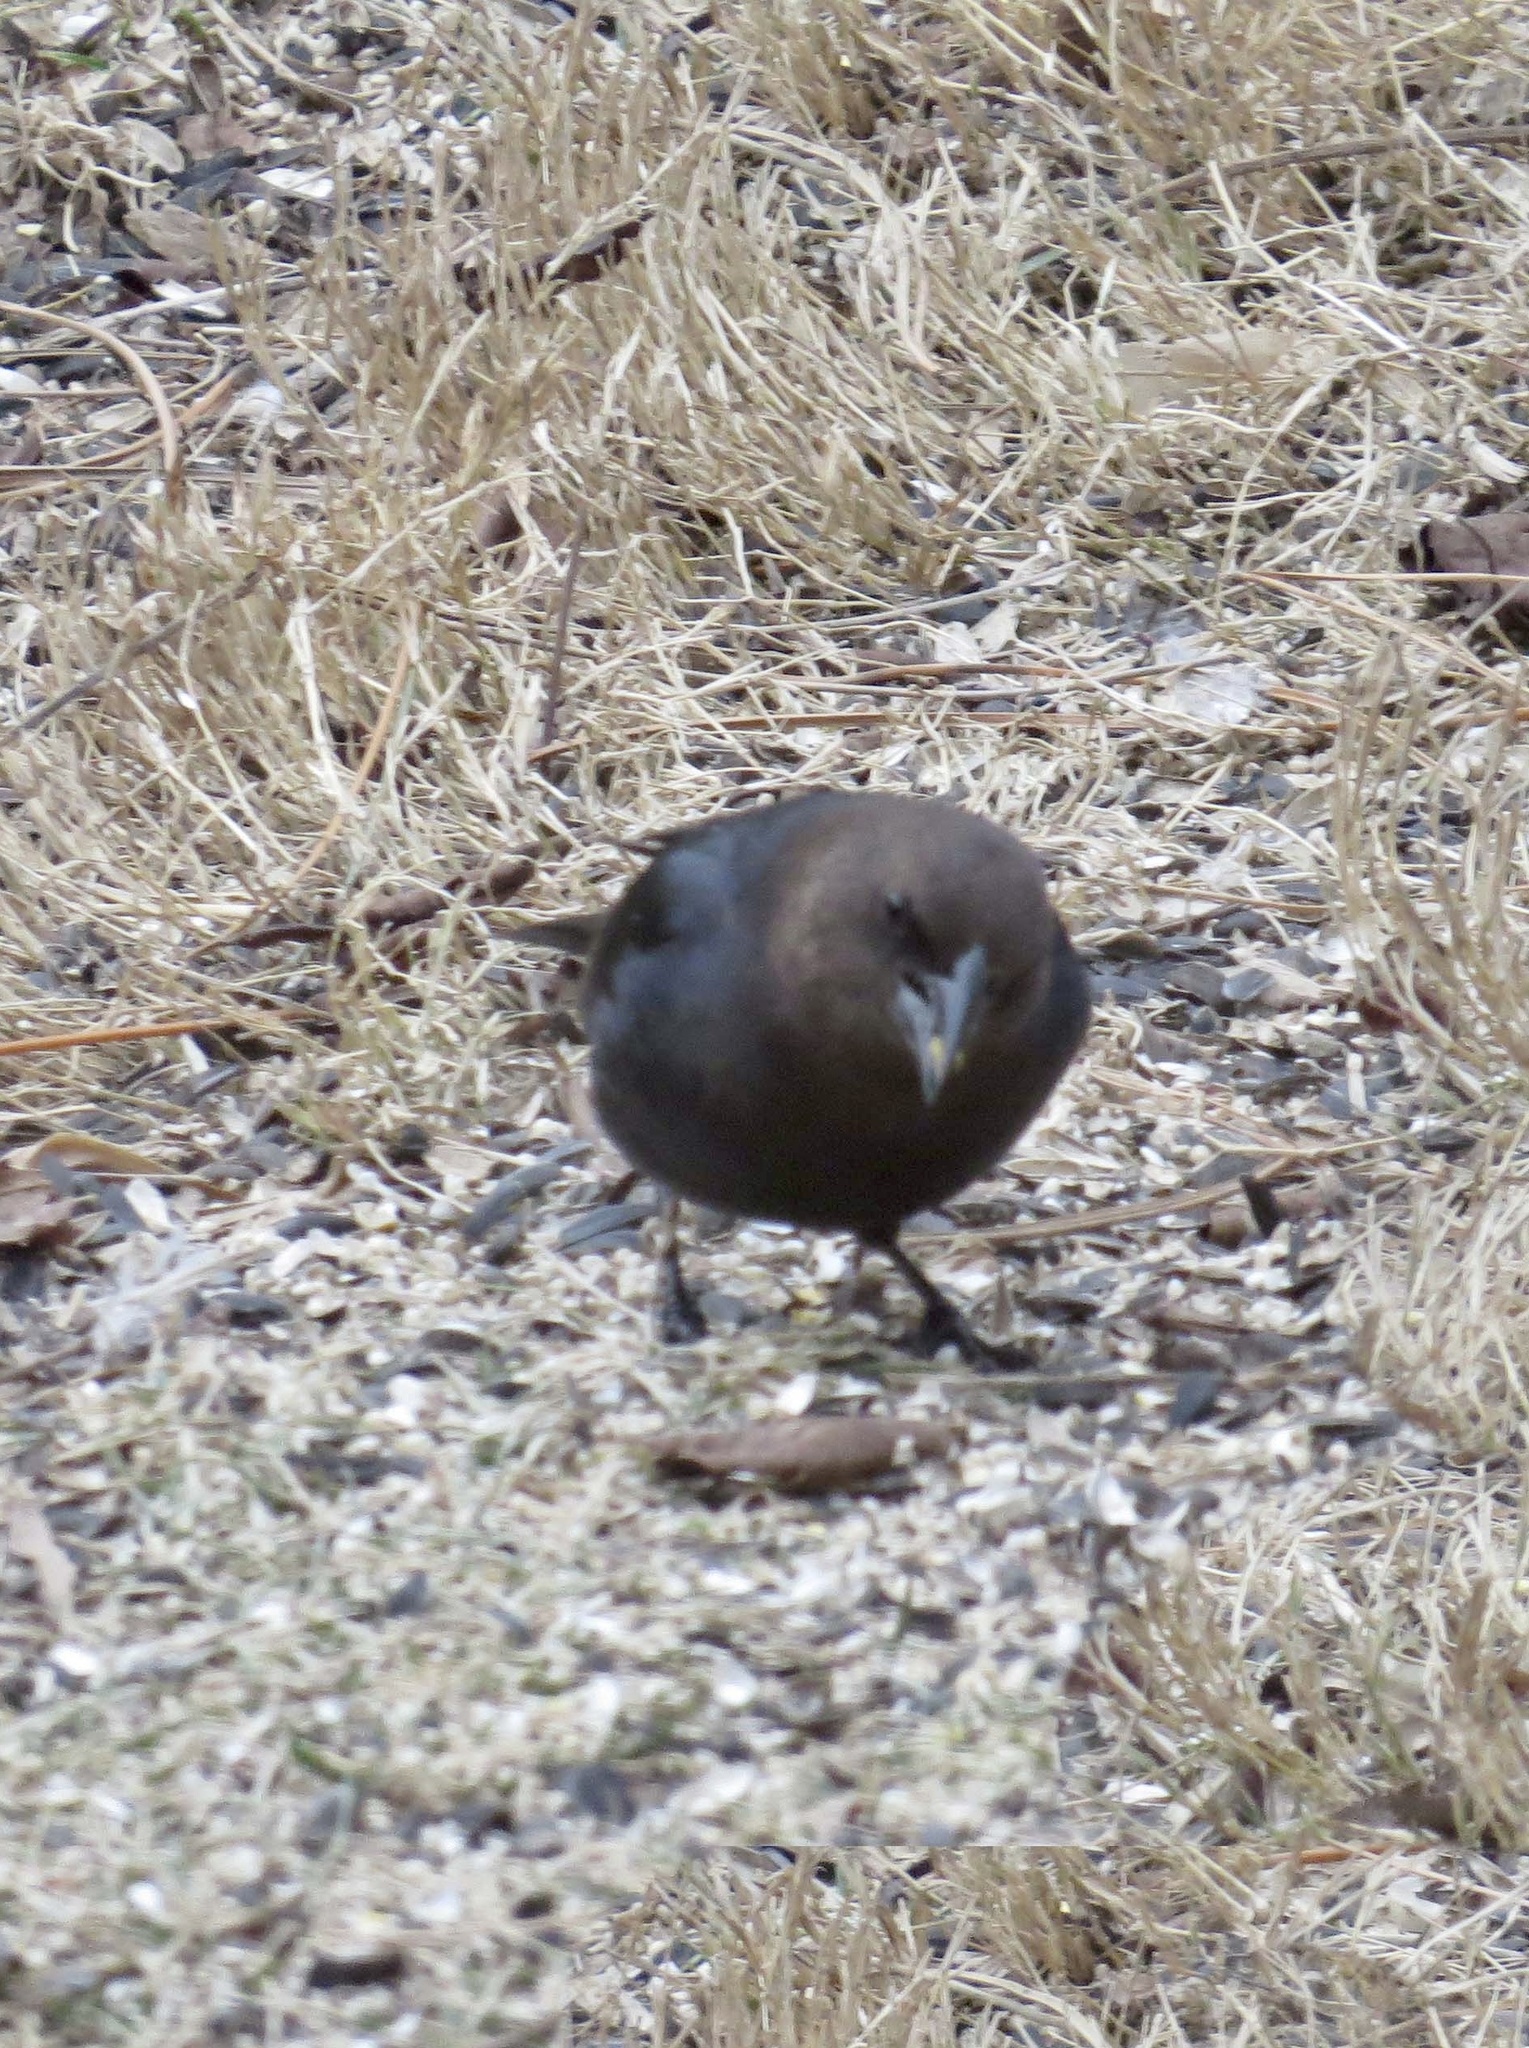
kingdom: Animalia
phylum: Chordata
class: Aves
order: Passeriformes
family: Icteridae
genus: Molothrus
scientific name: Molothrus ater
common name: Brown-headed cowbird
